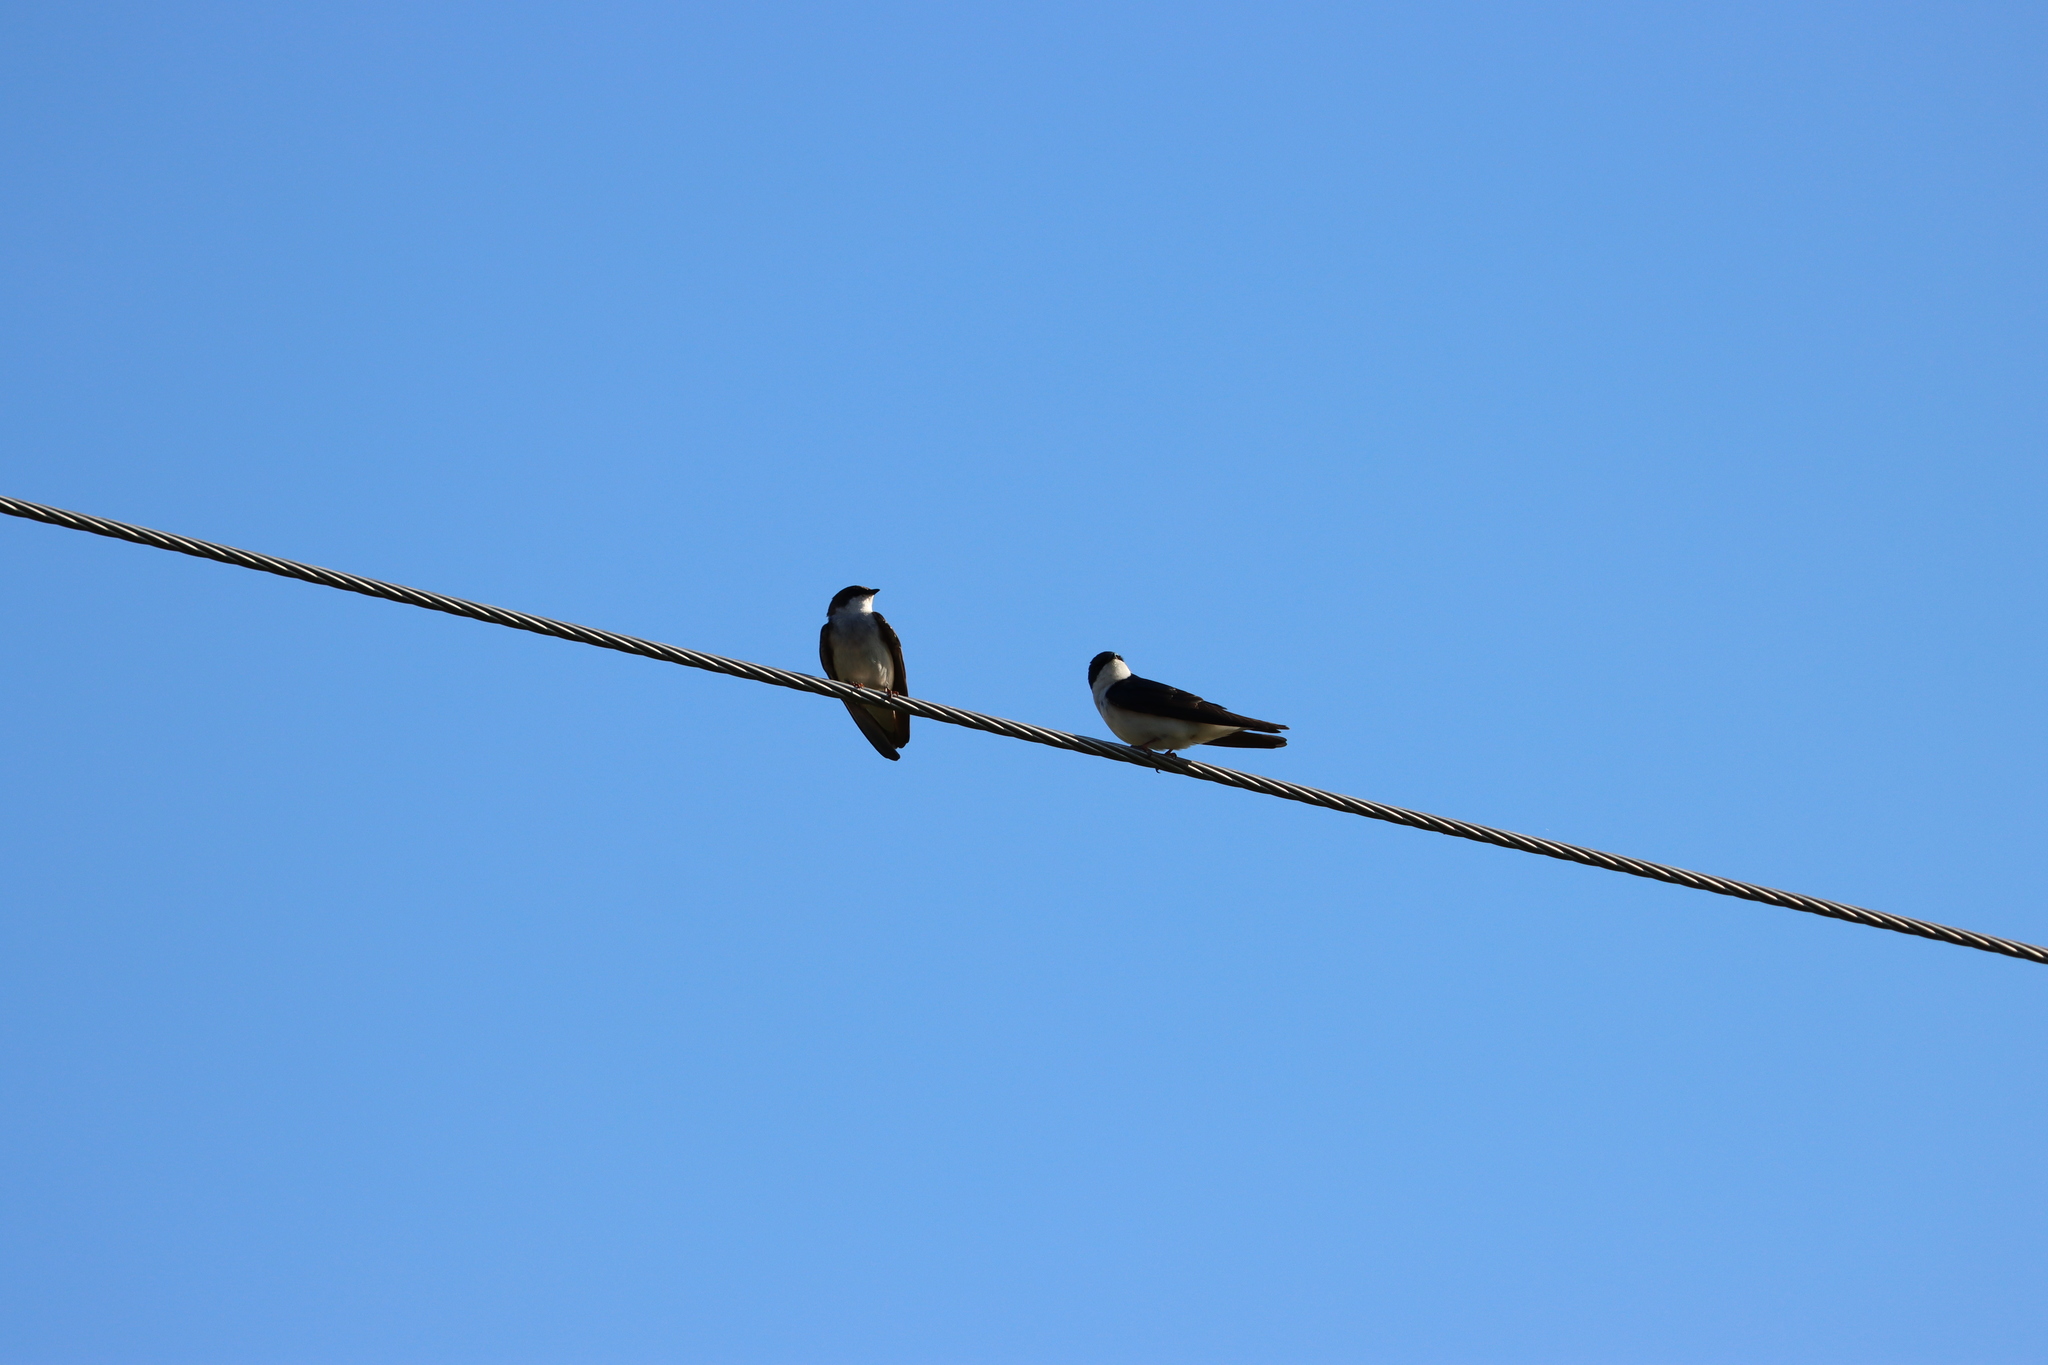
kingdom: Animalia
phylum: Chordata
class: Aves
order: Passeriformes
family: Hirundinidae
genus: Tachycineta
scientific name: Tachycineta bicolor
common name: Tree swallow
